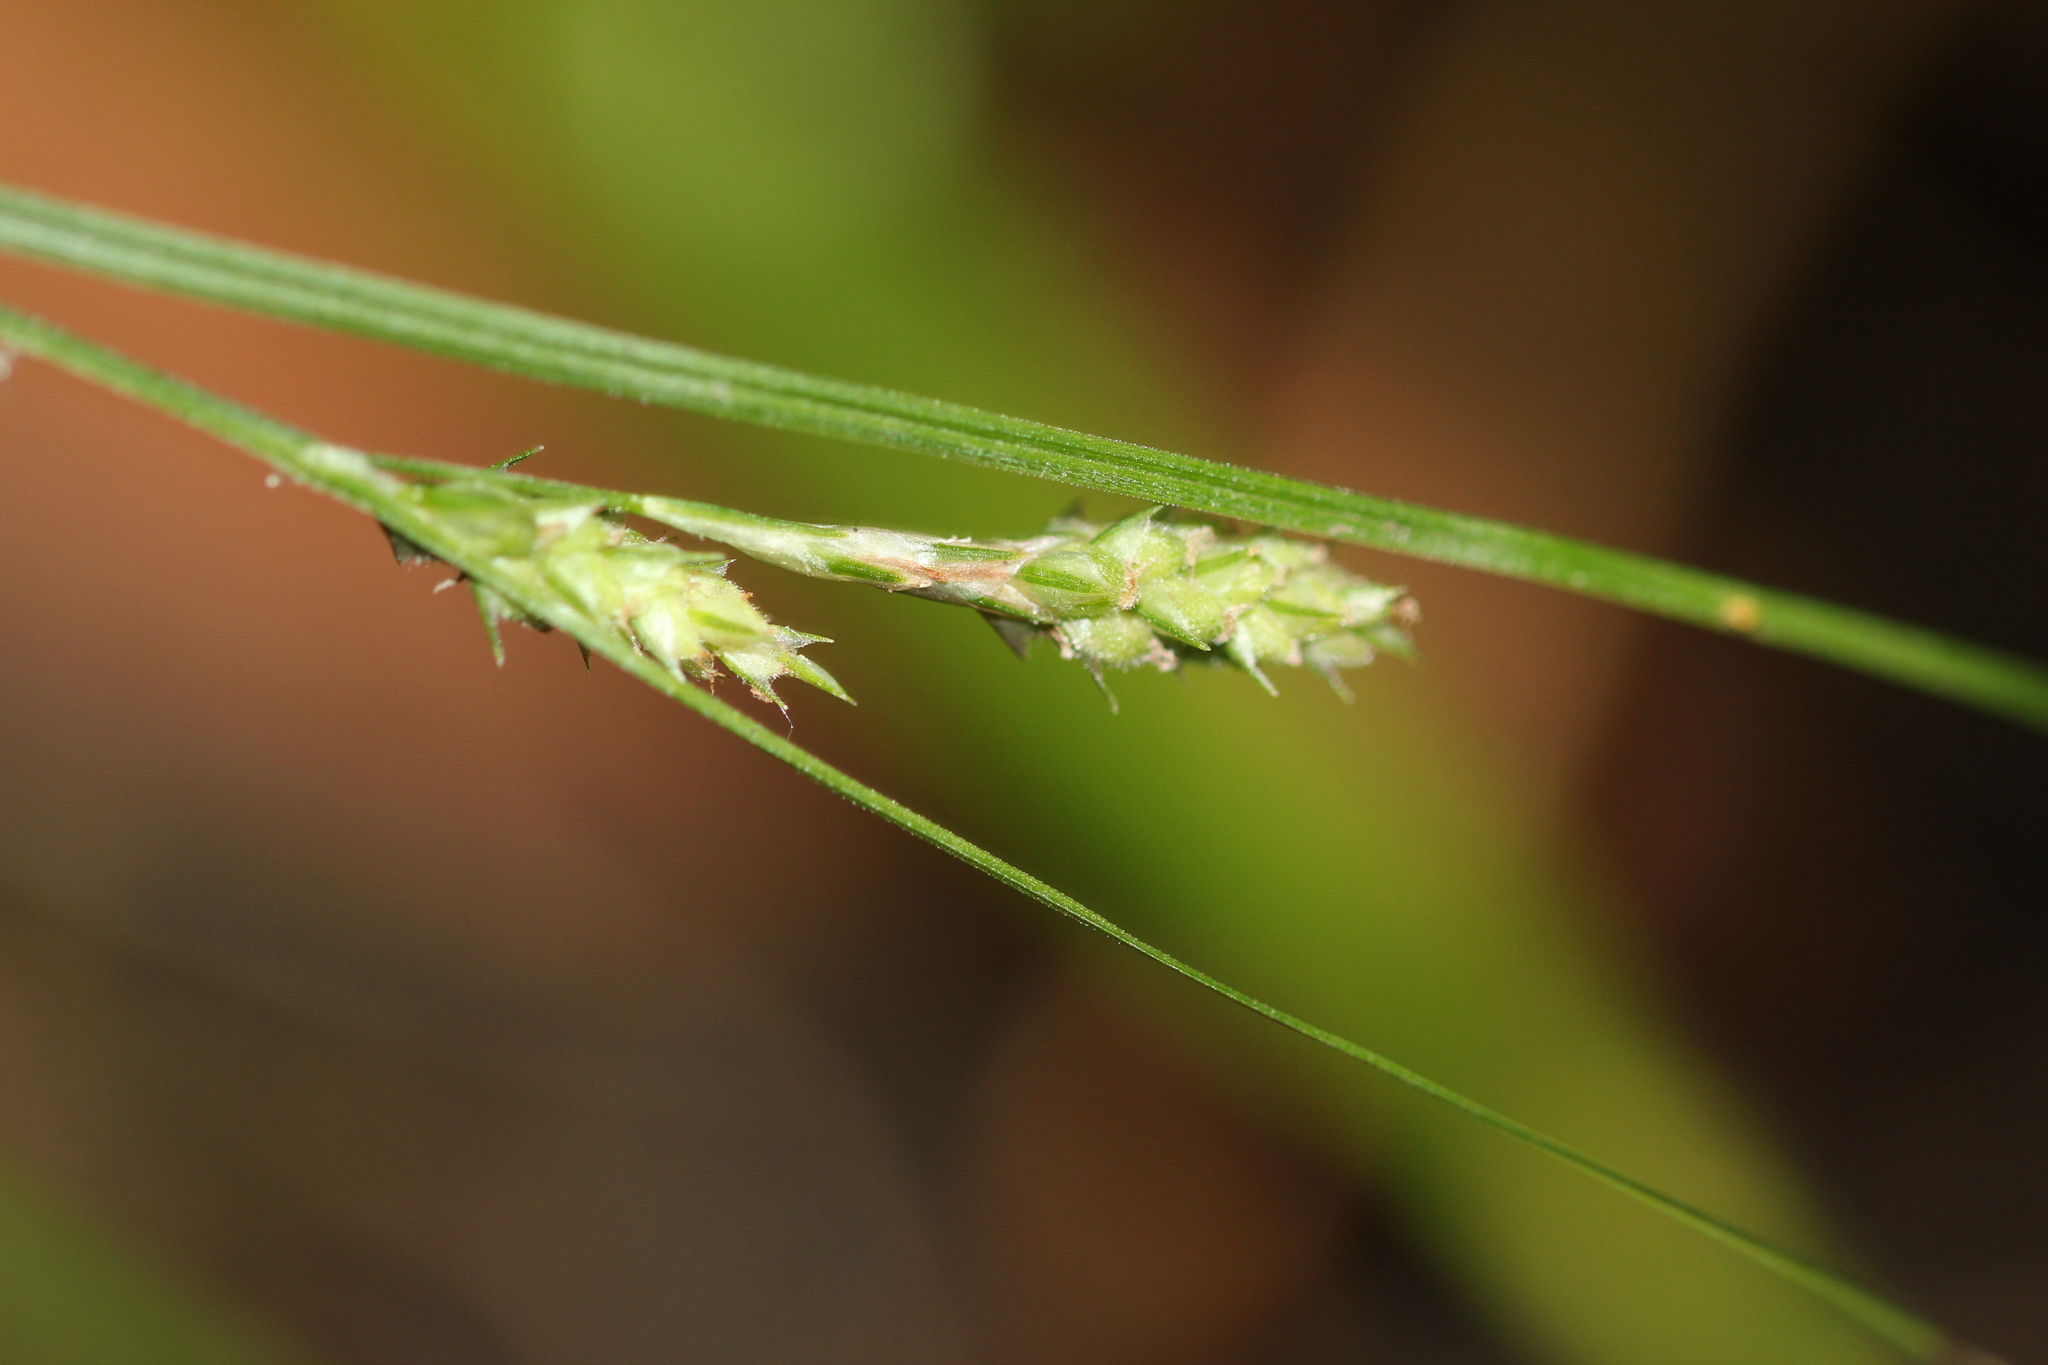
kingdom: Plantae
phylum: Tracheophyta
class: Liliopsida
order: Poales
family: Cyperaceae
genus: Carex
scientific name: Carex swanii
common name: Downy green sedge
